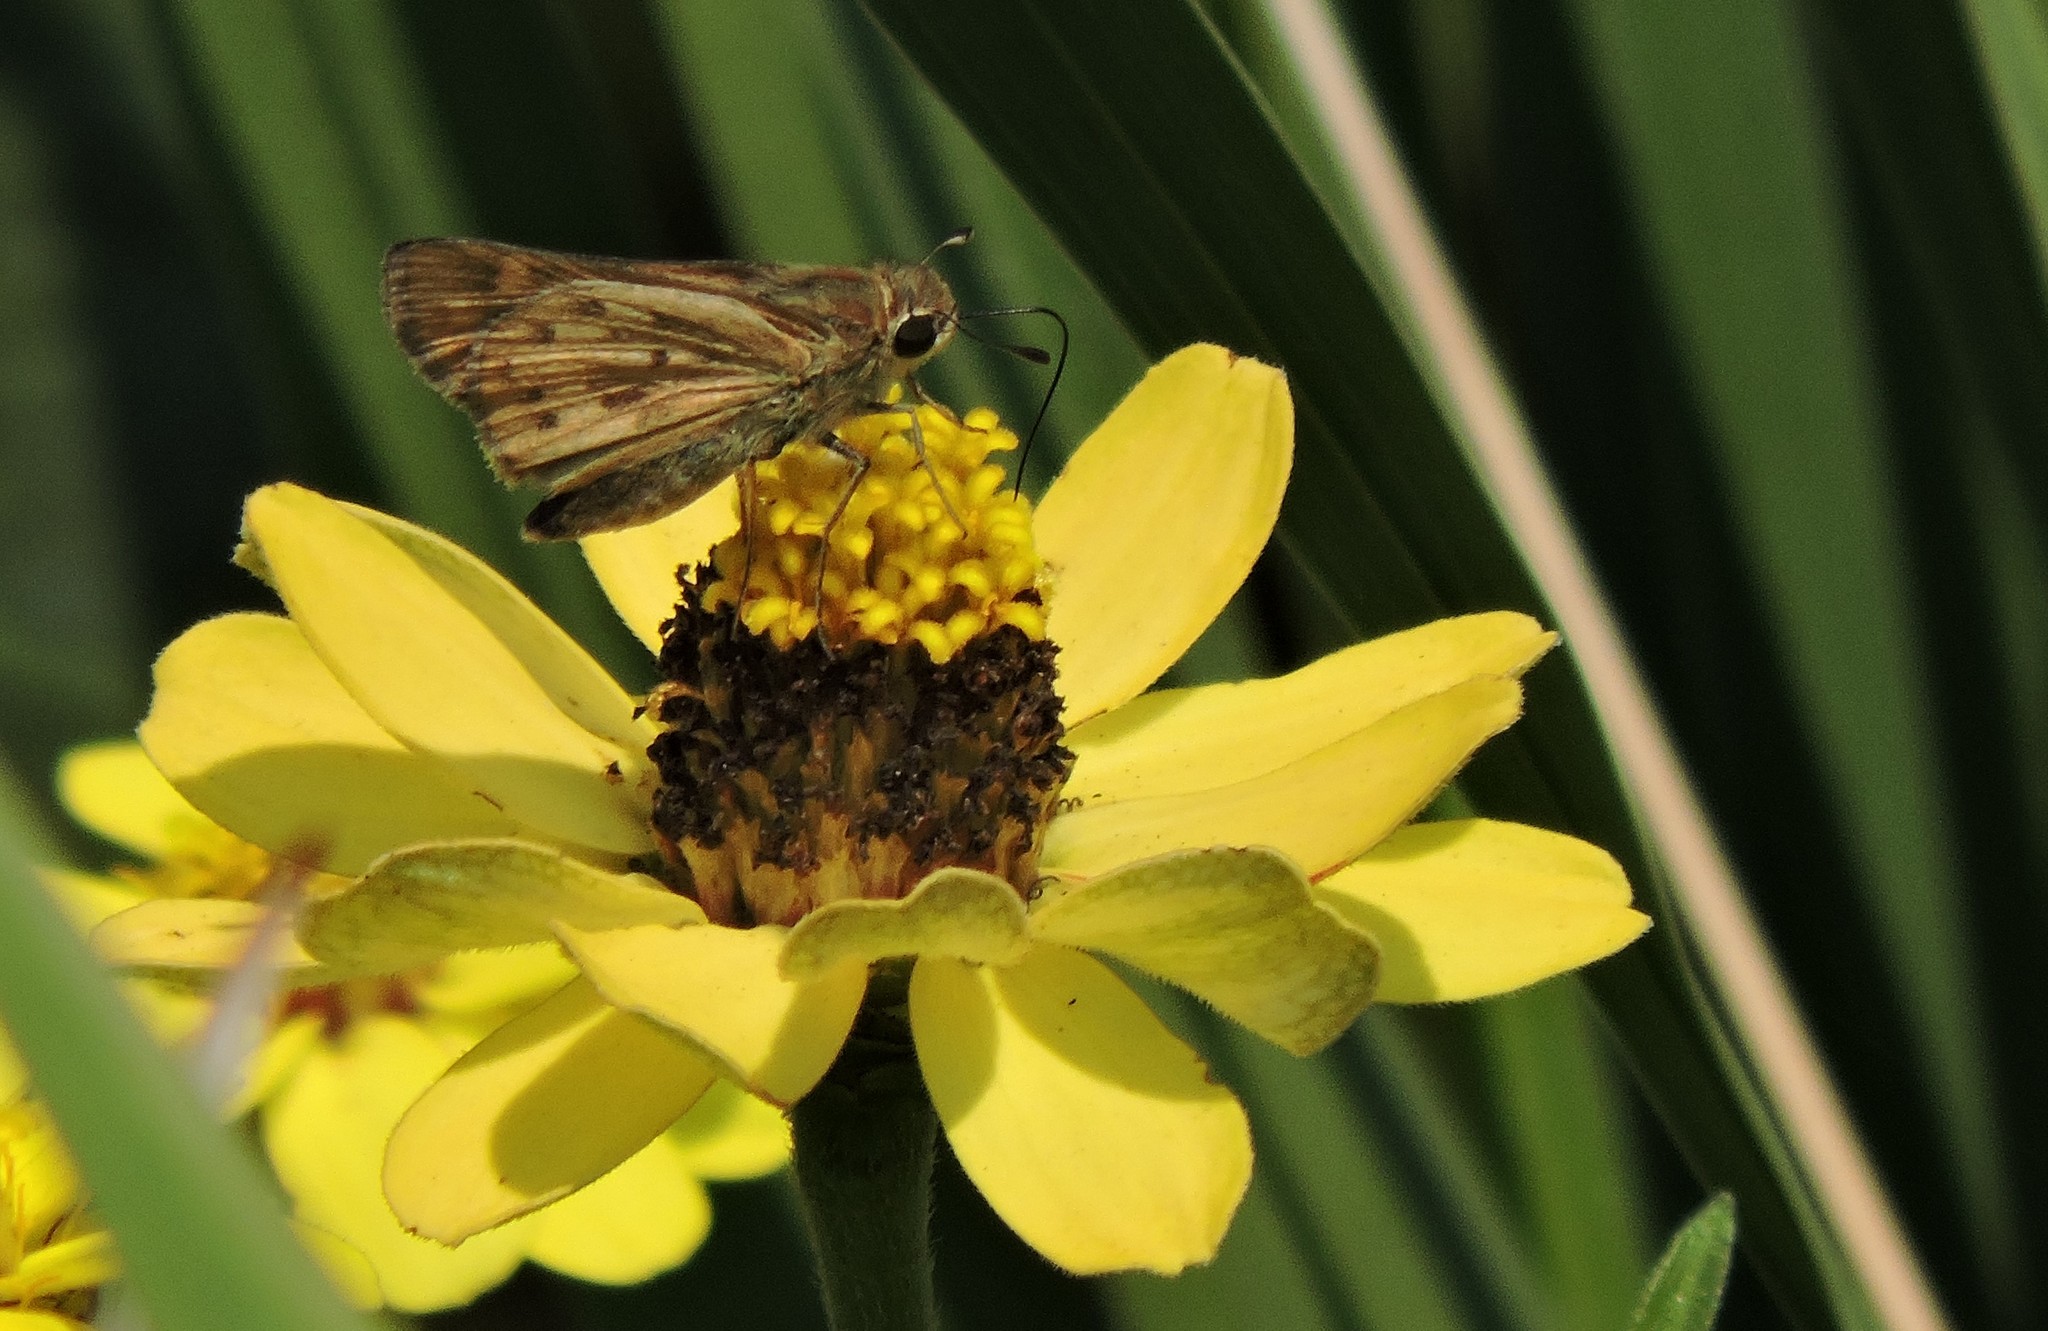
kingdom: Animalia
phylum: Arthropoda
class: Insecta
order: Lepidoptera
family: Hesperiidae
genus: Hylephila
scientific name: Hylephila phyleus
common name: Fiery skipper
